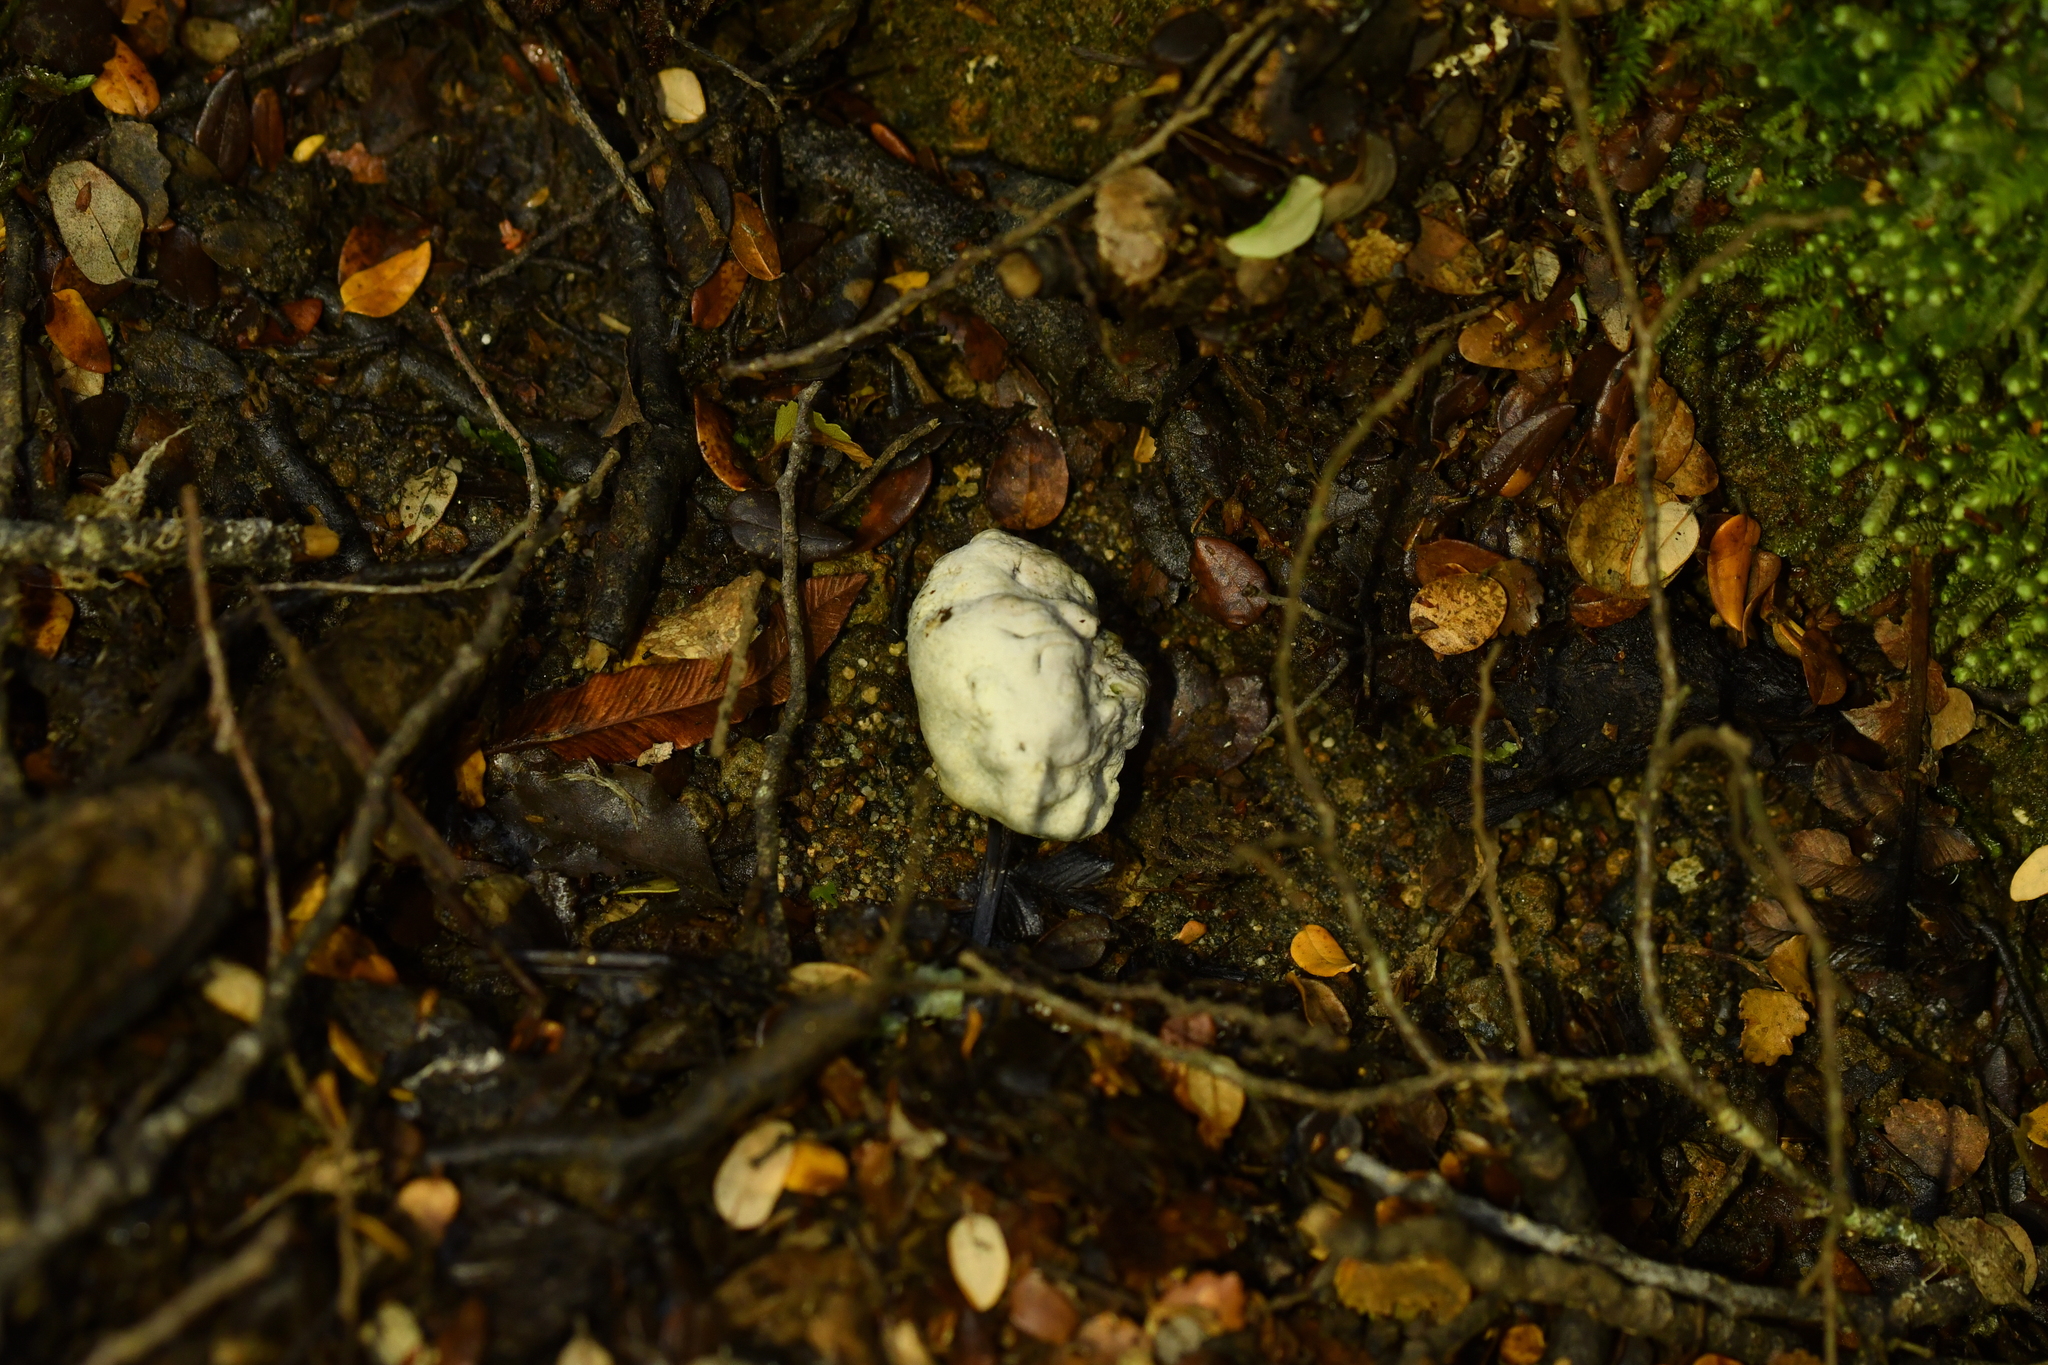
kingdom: Fungi
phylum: Basidiomycota
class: Agaricomycetes
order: Boletales
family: Boletaceae
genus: Leccinum
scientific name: Leccinum pachyderme
